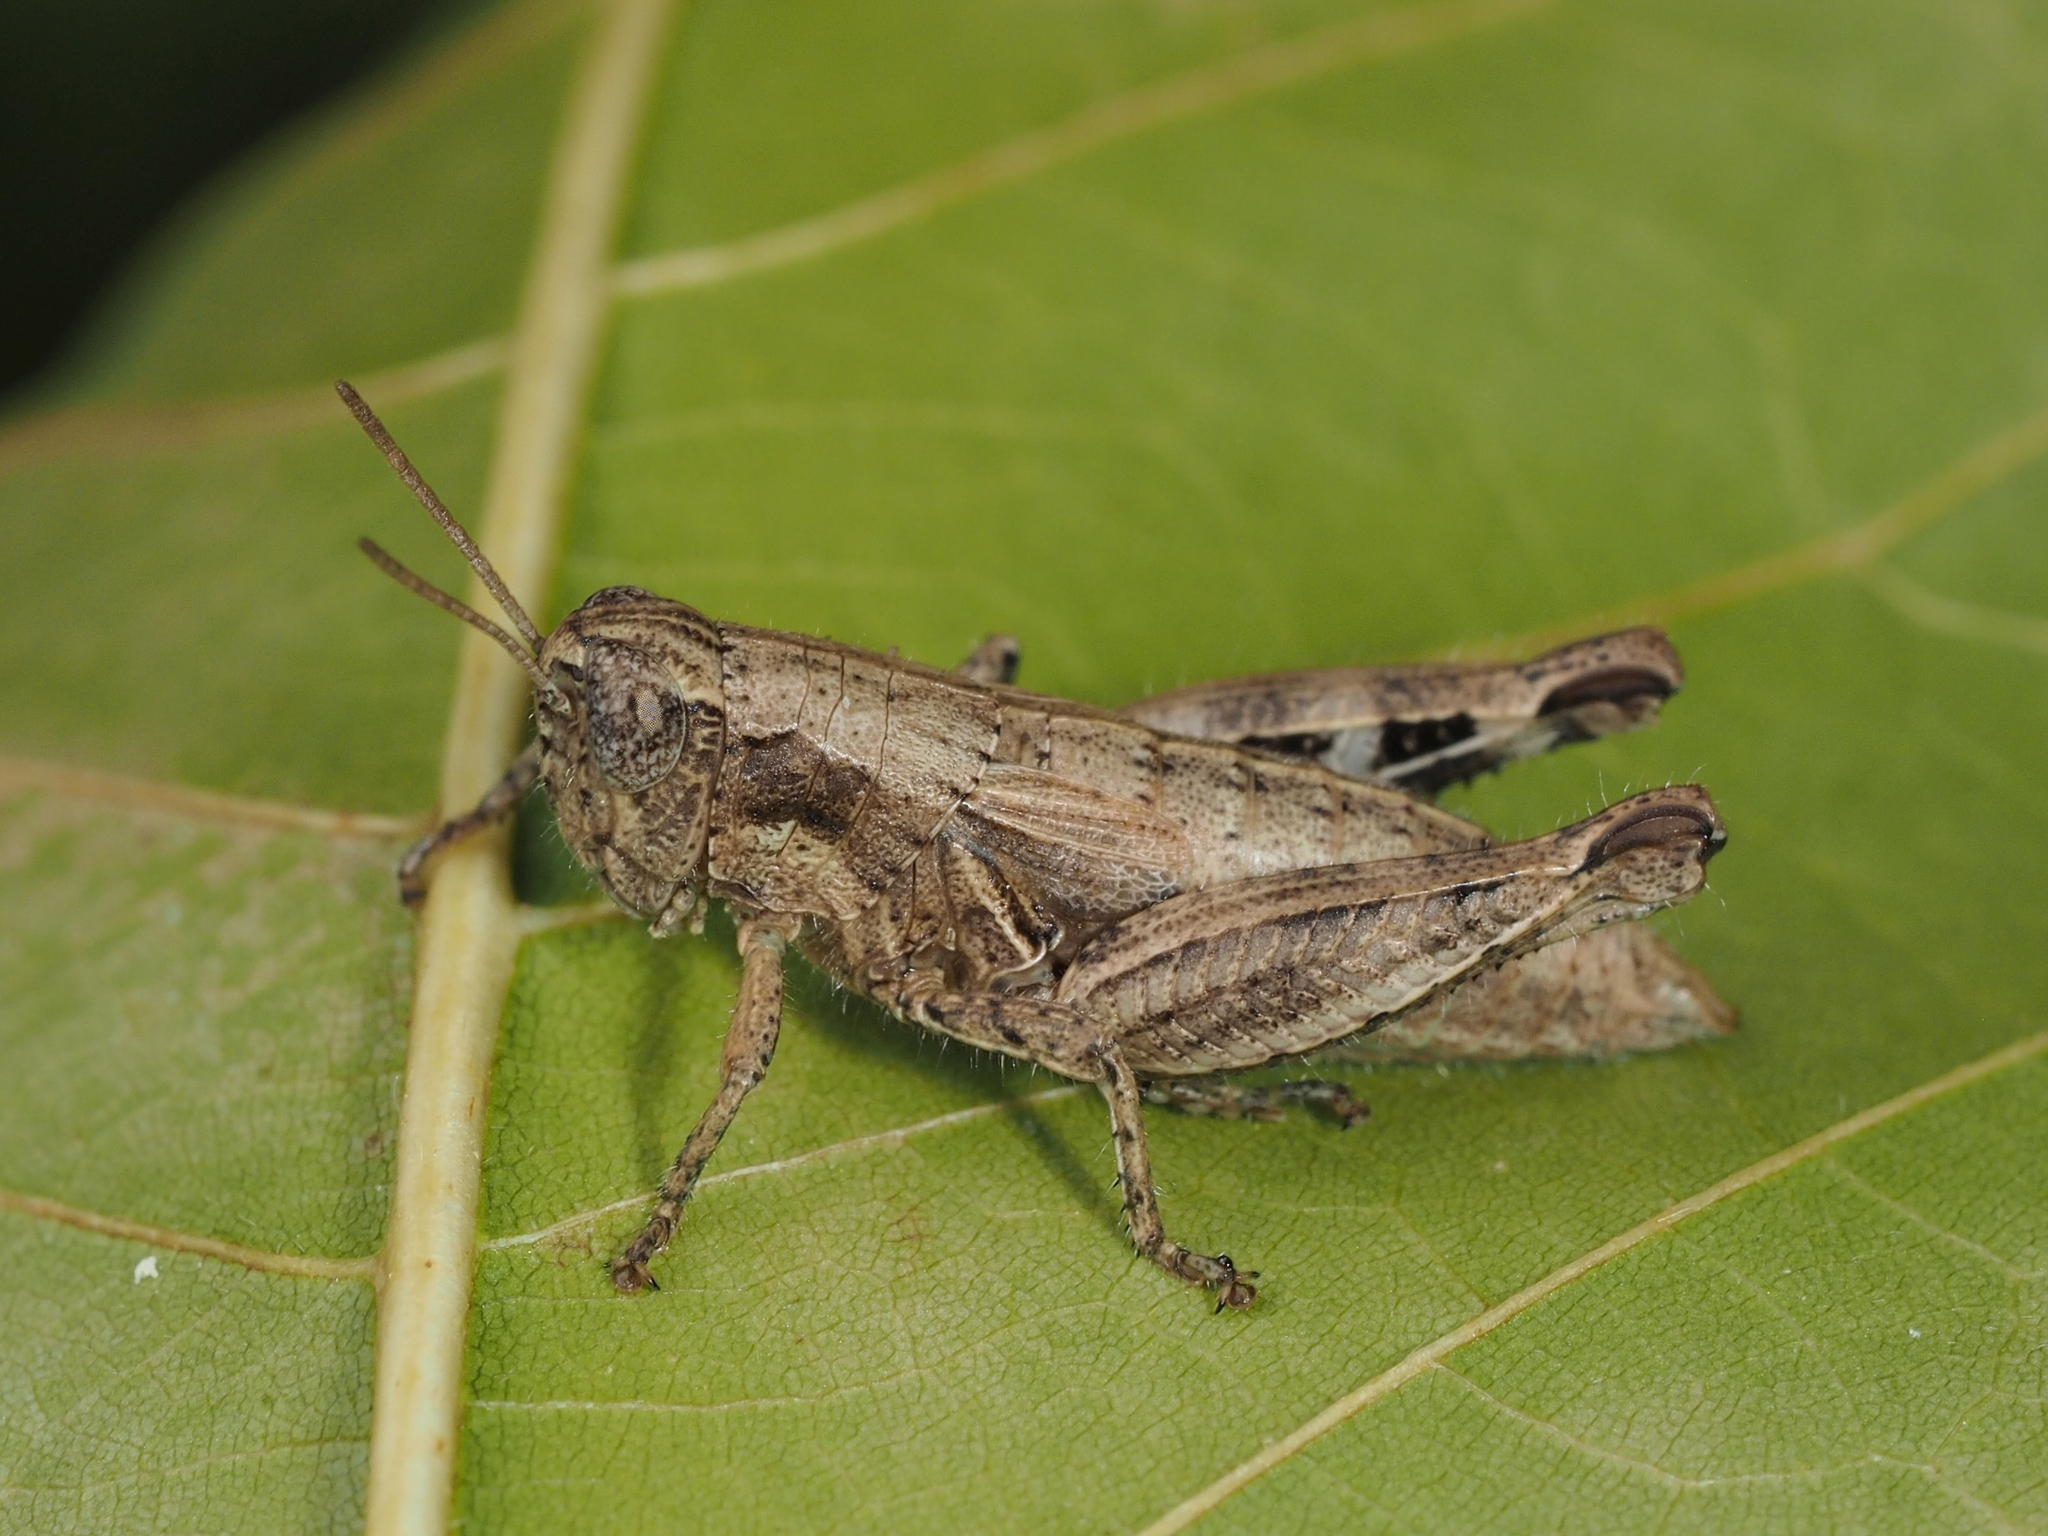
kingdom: Animalia
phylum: Arthropoda
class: Insecta
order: Orthoptera
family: Acrididae
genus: Pezotettix
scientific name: Pezotettix giornae
